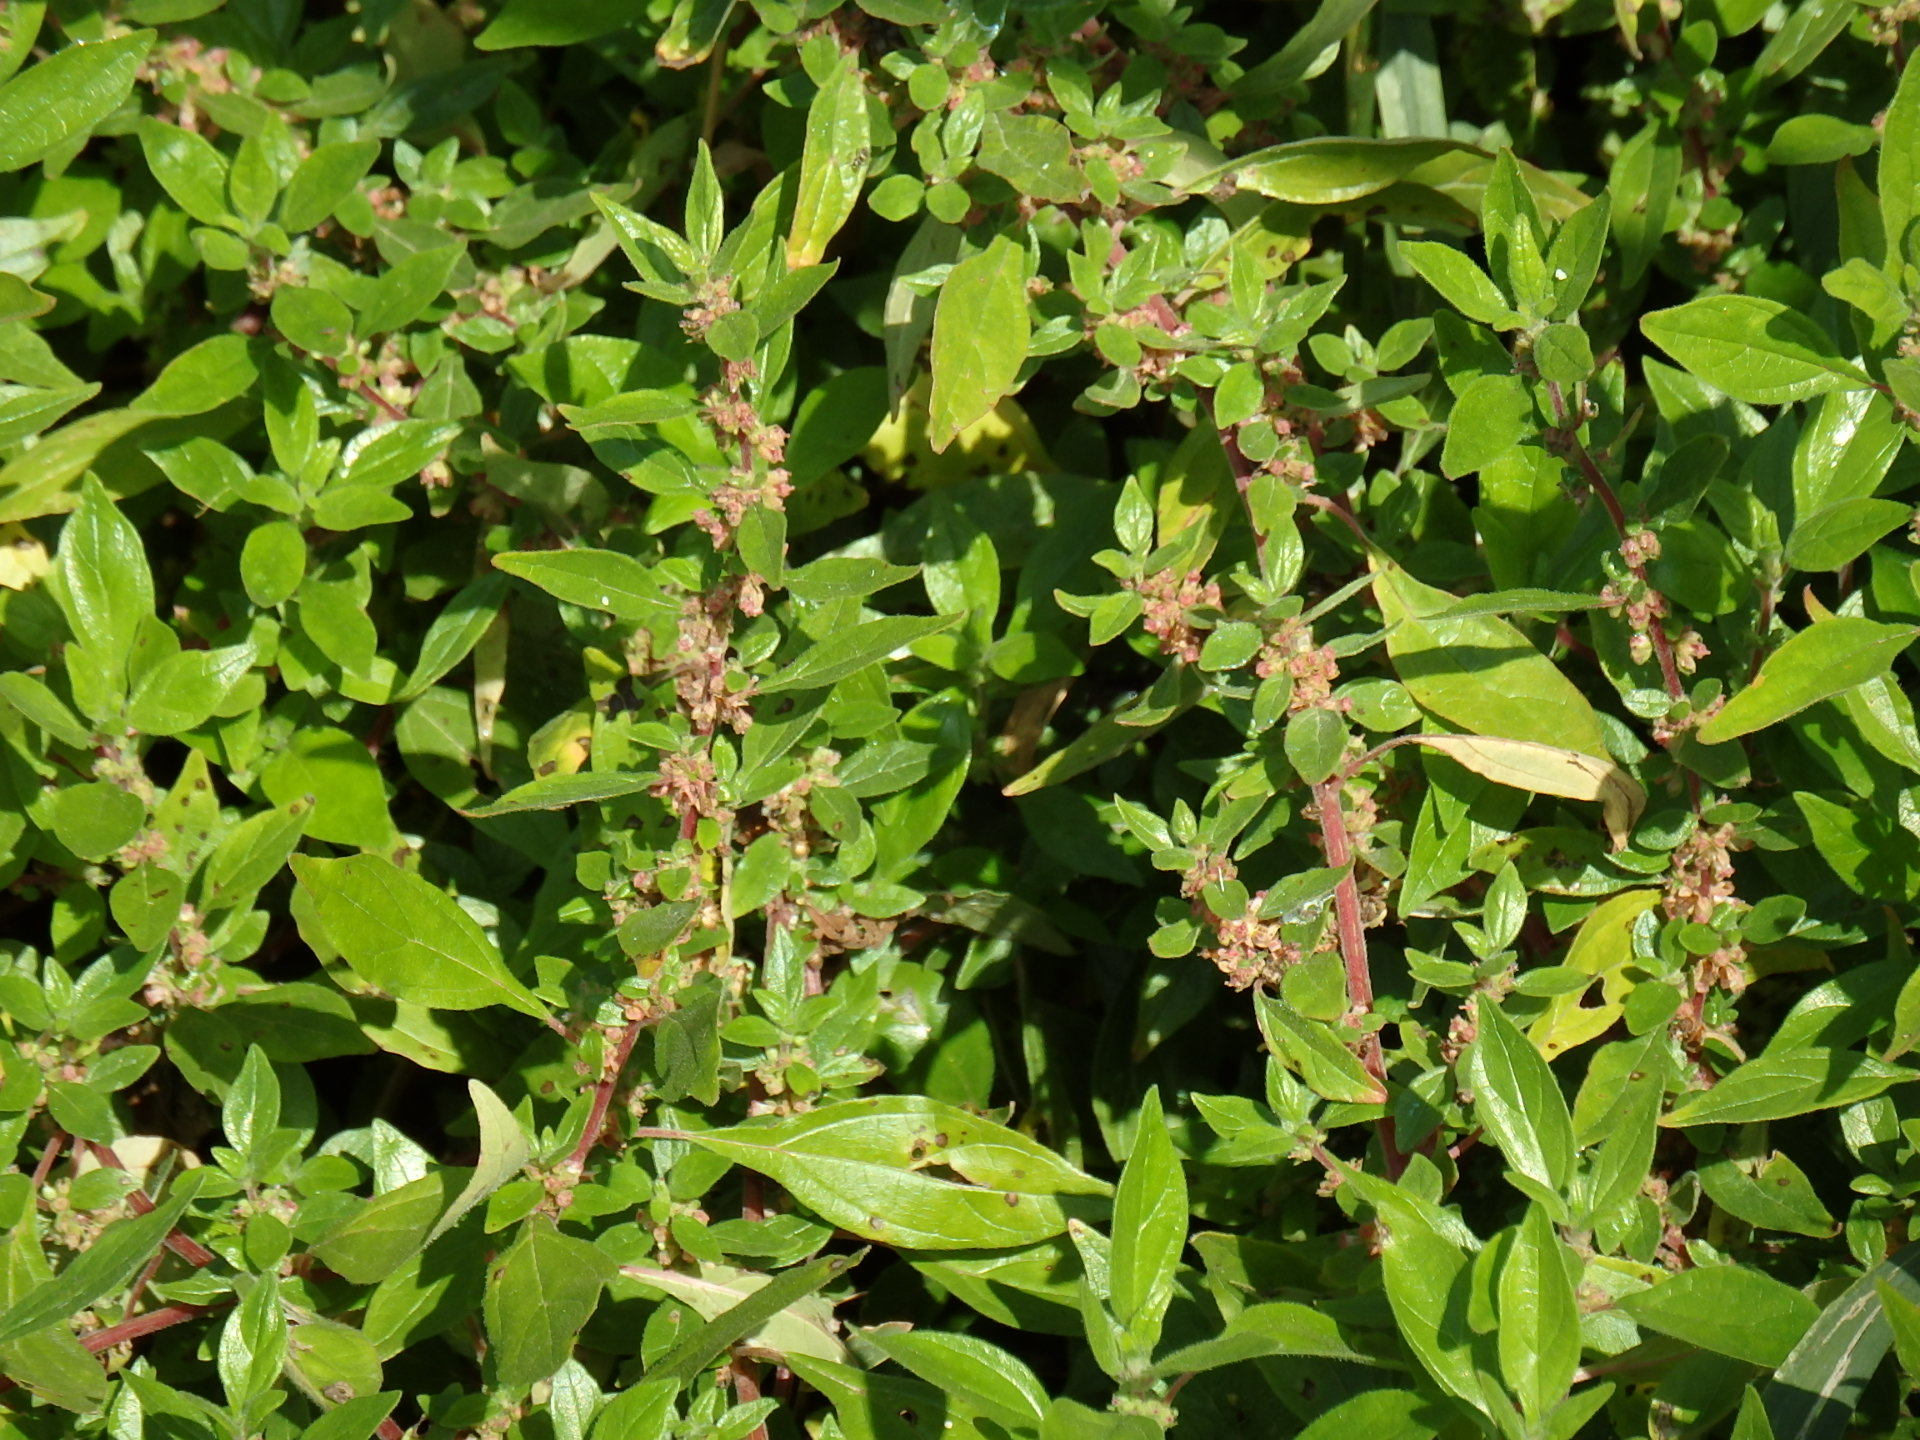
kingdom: Plantae
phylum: Tracheophyta
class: Magnoliopsida
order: Rosales
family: Urticaceae
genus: Parietaria
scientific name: Parietaria judaica
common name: Pellitory-of-the-wall
